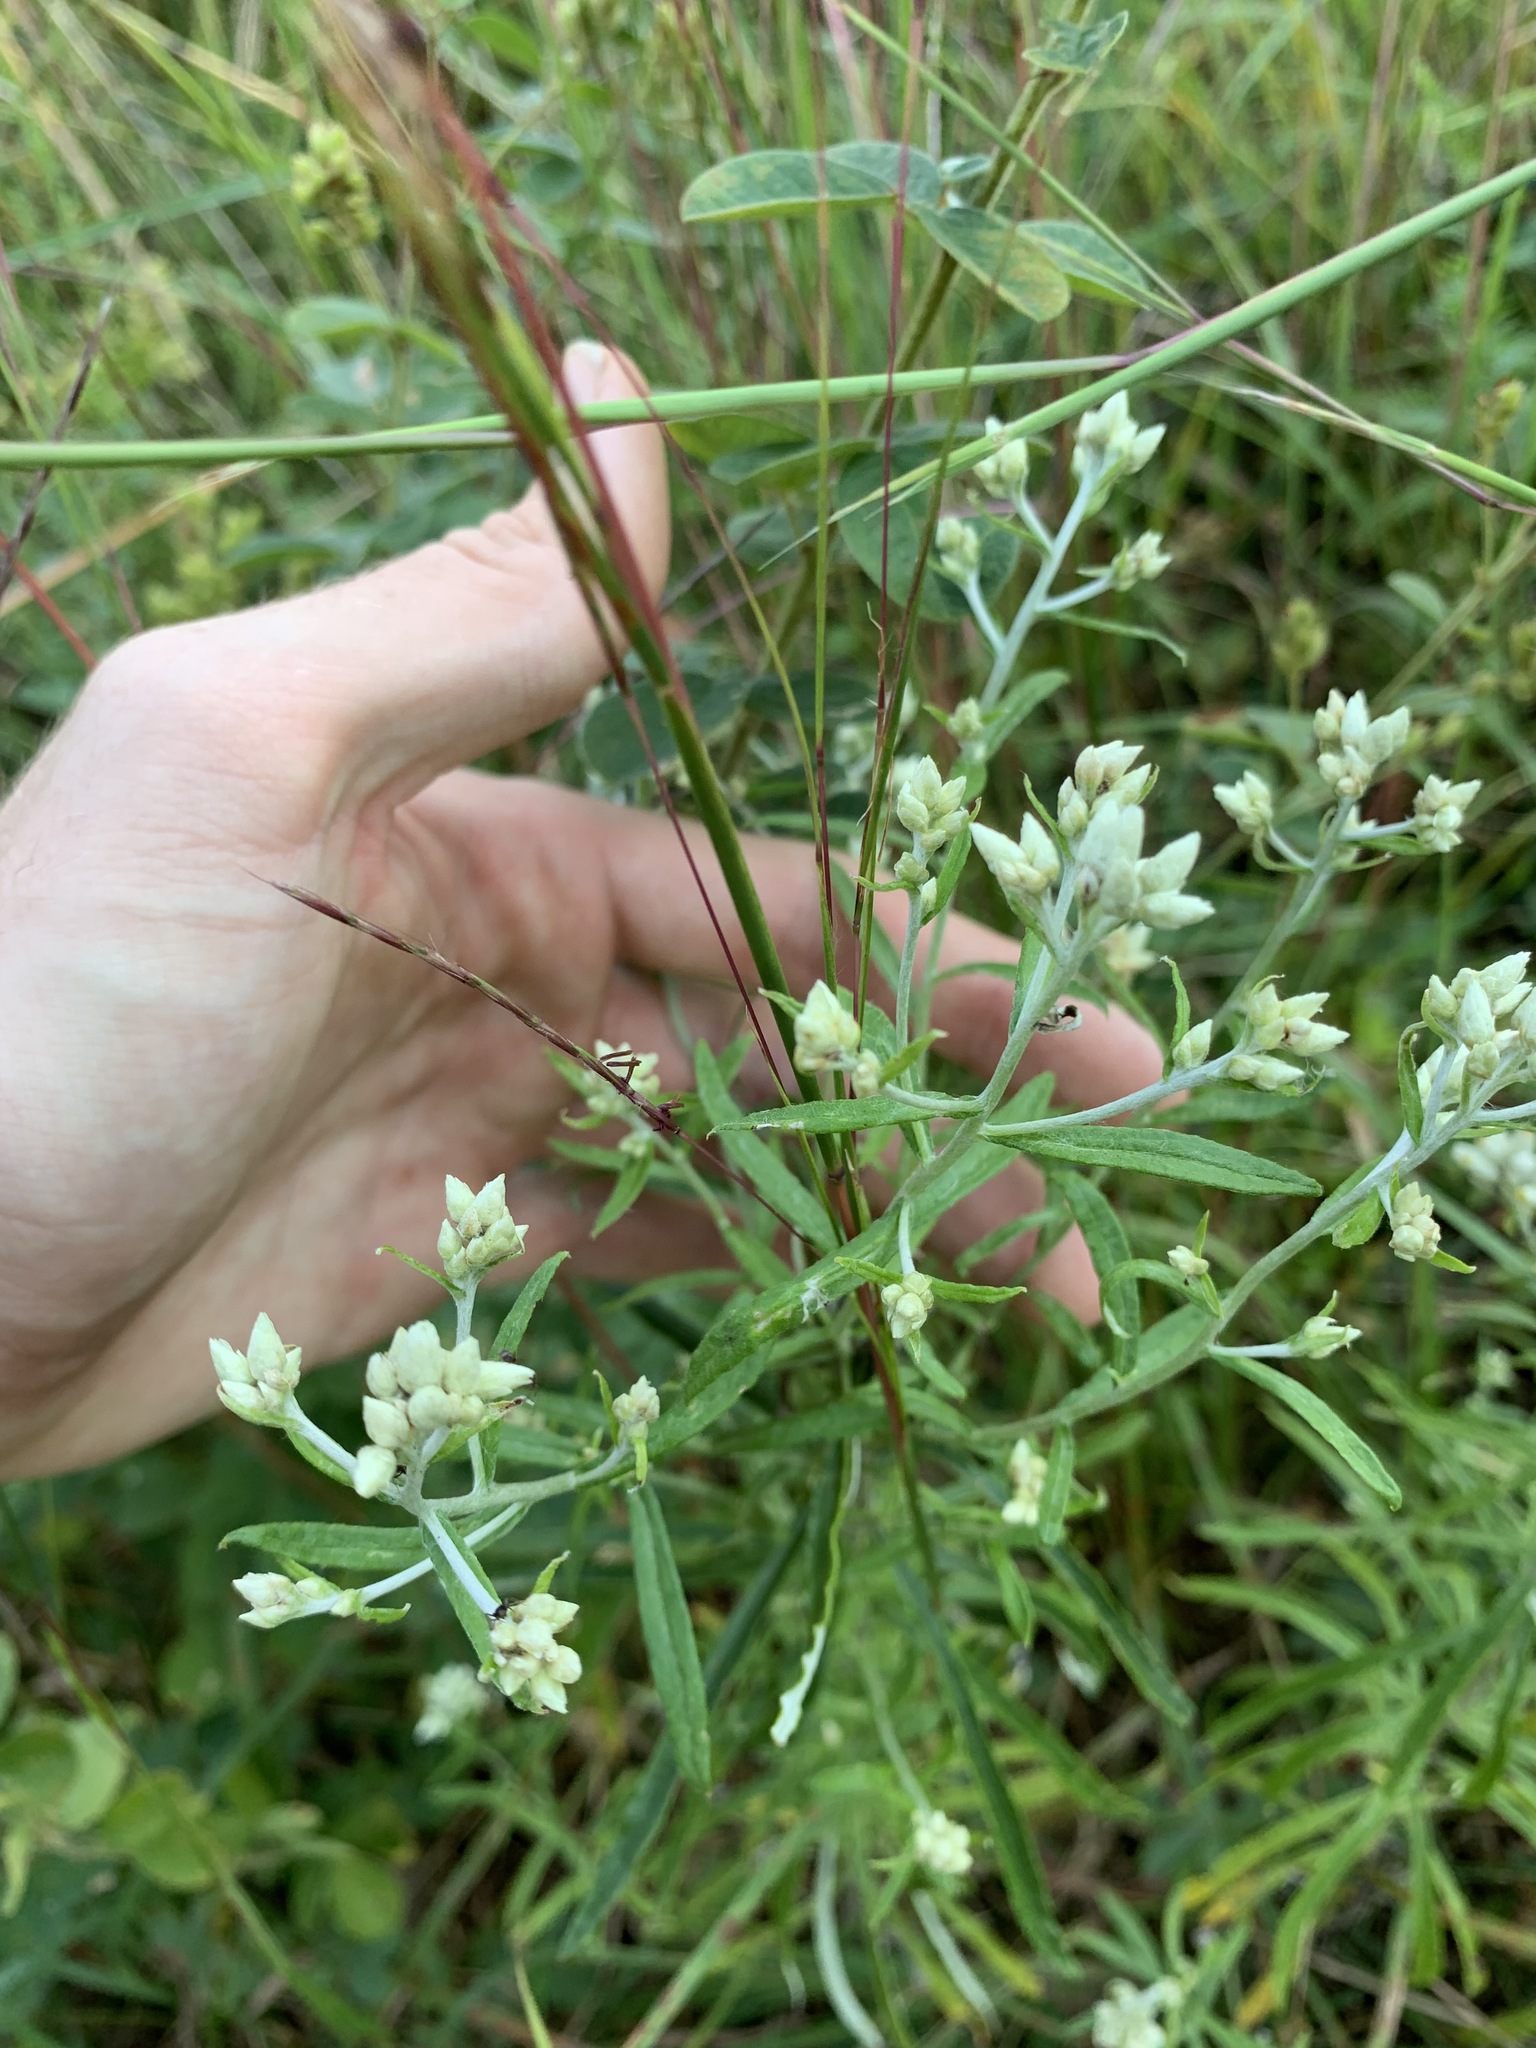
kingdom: Plantae
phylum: Tracheophyta
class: Magnoliopsida
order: Asterales
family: Asteraceae
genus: Pseudognaphalium
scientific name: Pseudognaphalium obtusifolium
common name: Eastern rabbit-tobacco
